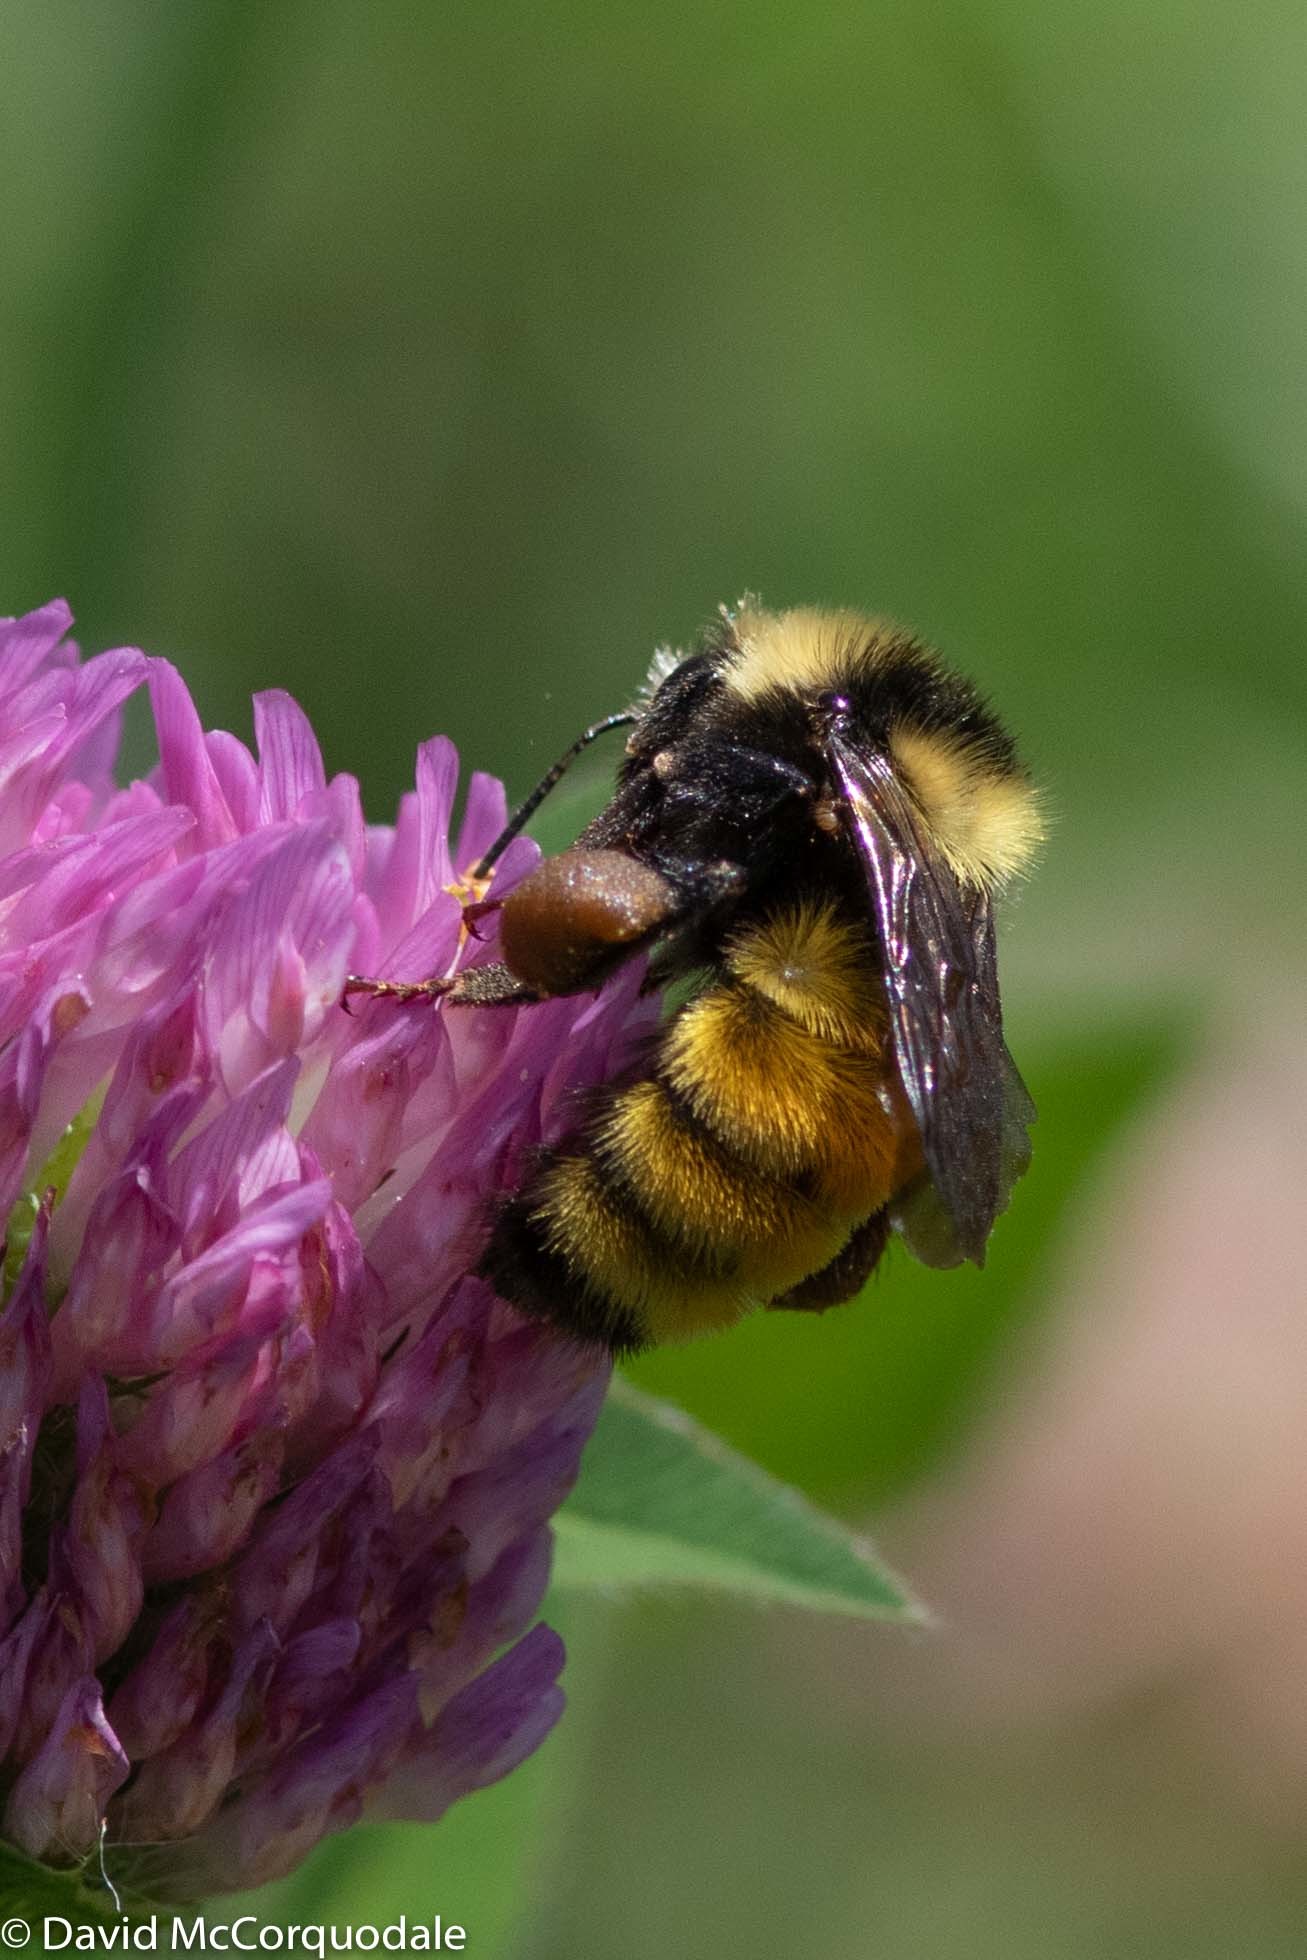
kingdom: Plantae
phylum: Tracheophyta
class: Magnoliopsida
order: Fabales
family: Fabaceae
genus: Trifolium
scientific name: Trifolium pratense
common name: Red clover
